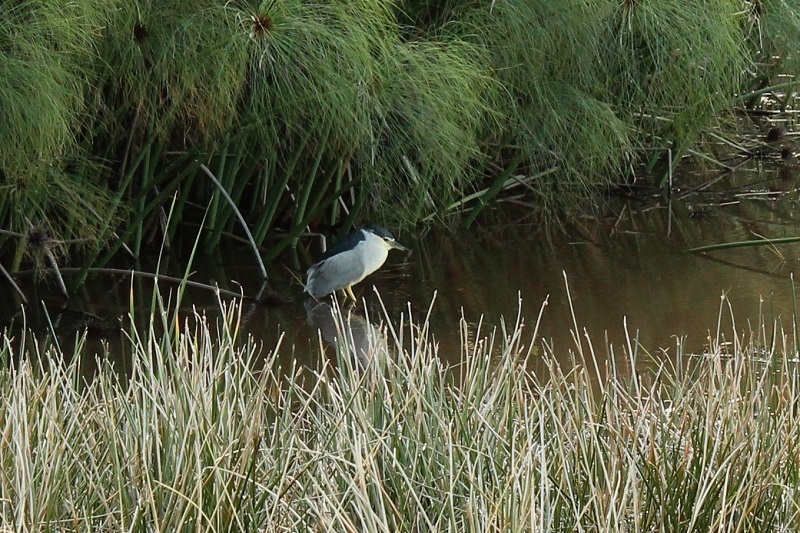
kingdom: Animalia
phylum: Chordata
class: Aves
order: Pelecaniformes
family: Ardeidae
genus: Nycticorax
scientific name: Nycticorax nycticorax
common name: Black-crowned night heron
